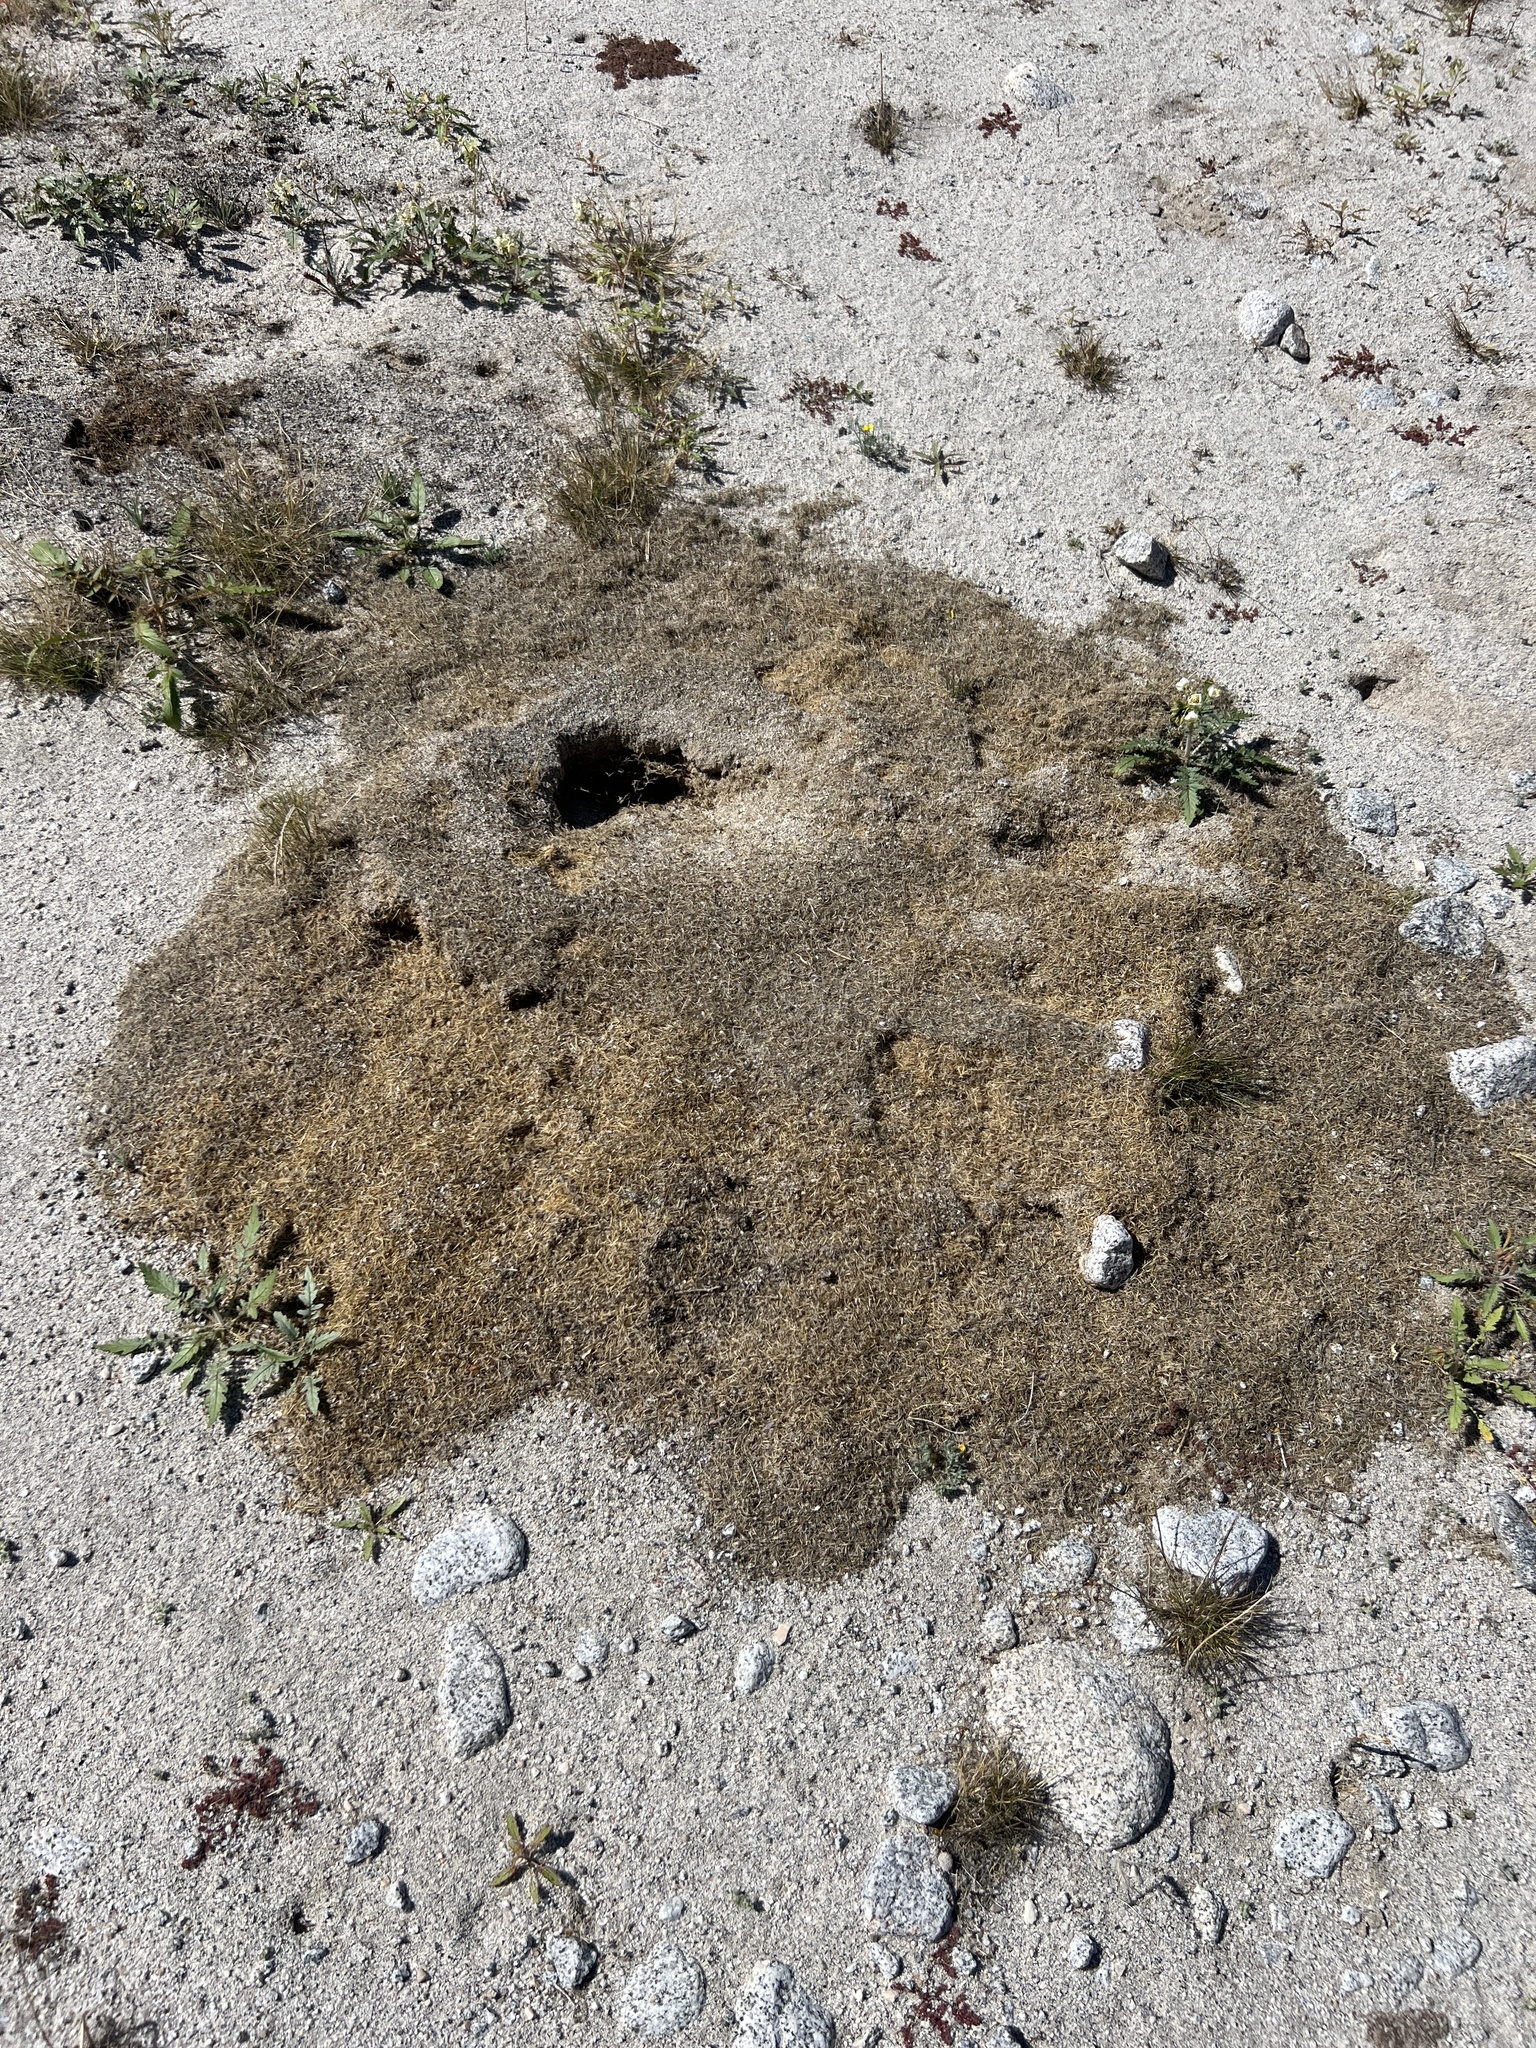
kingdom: Animalia
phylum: Arthropoda
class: Insecta
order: Hymenoptera
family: Formicidae
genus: Messor
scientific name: Messor pergandei
